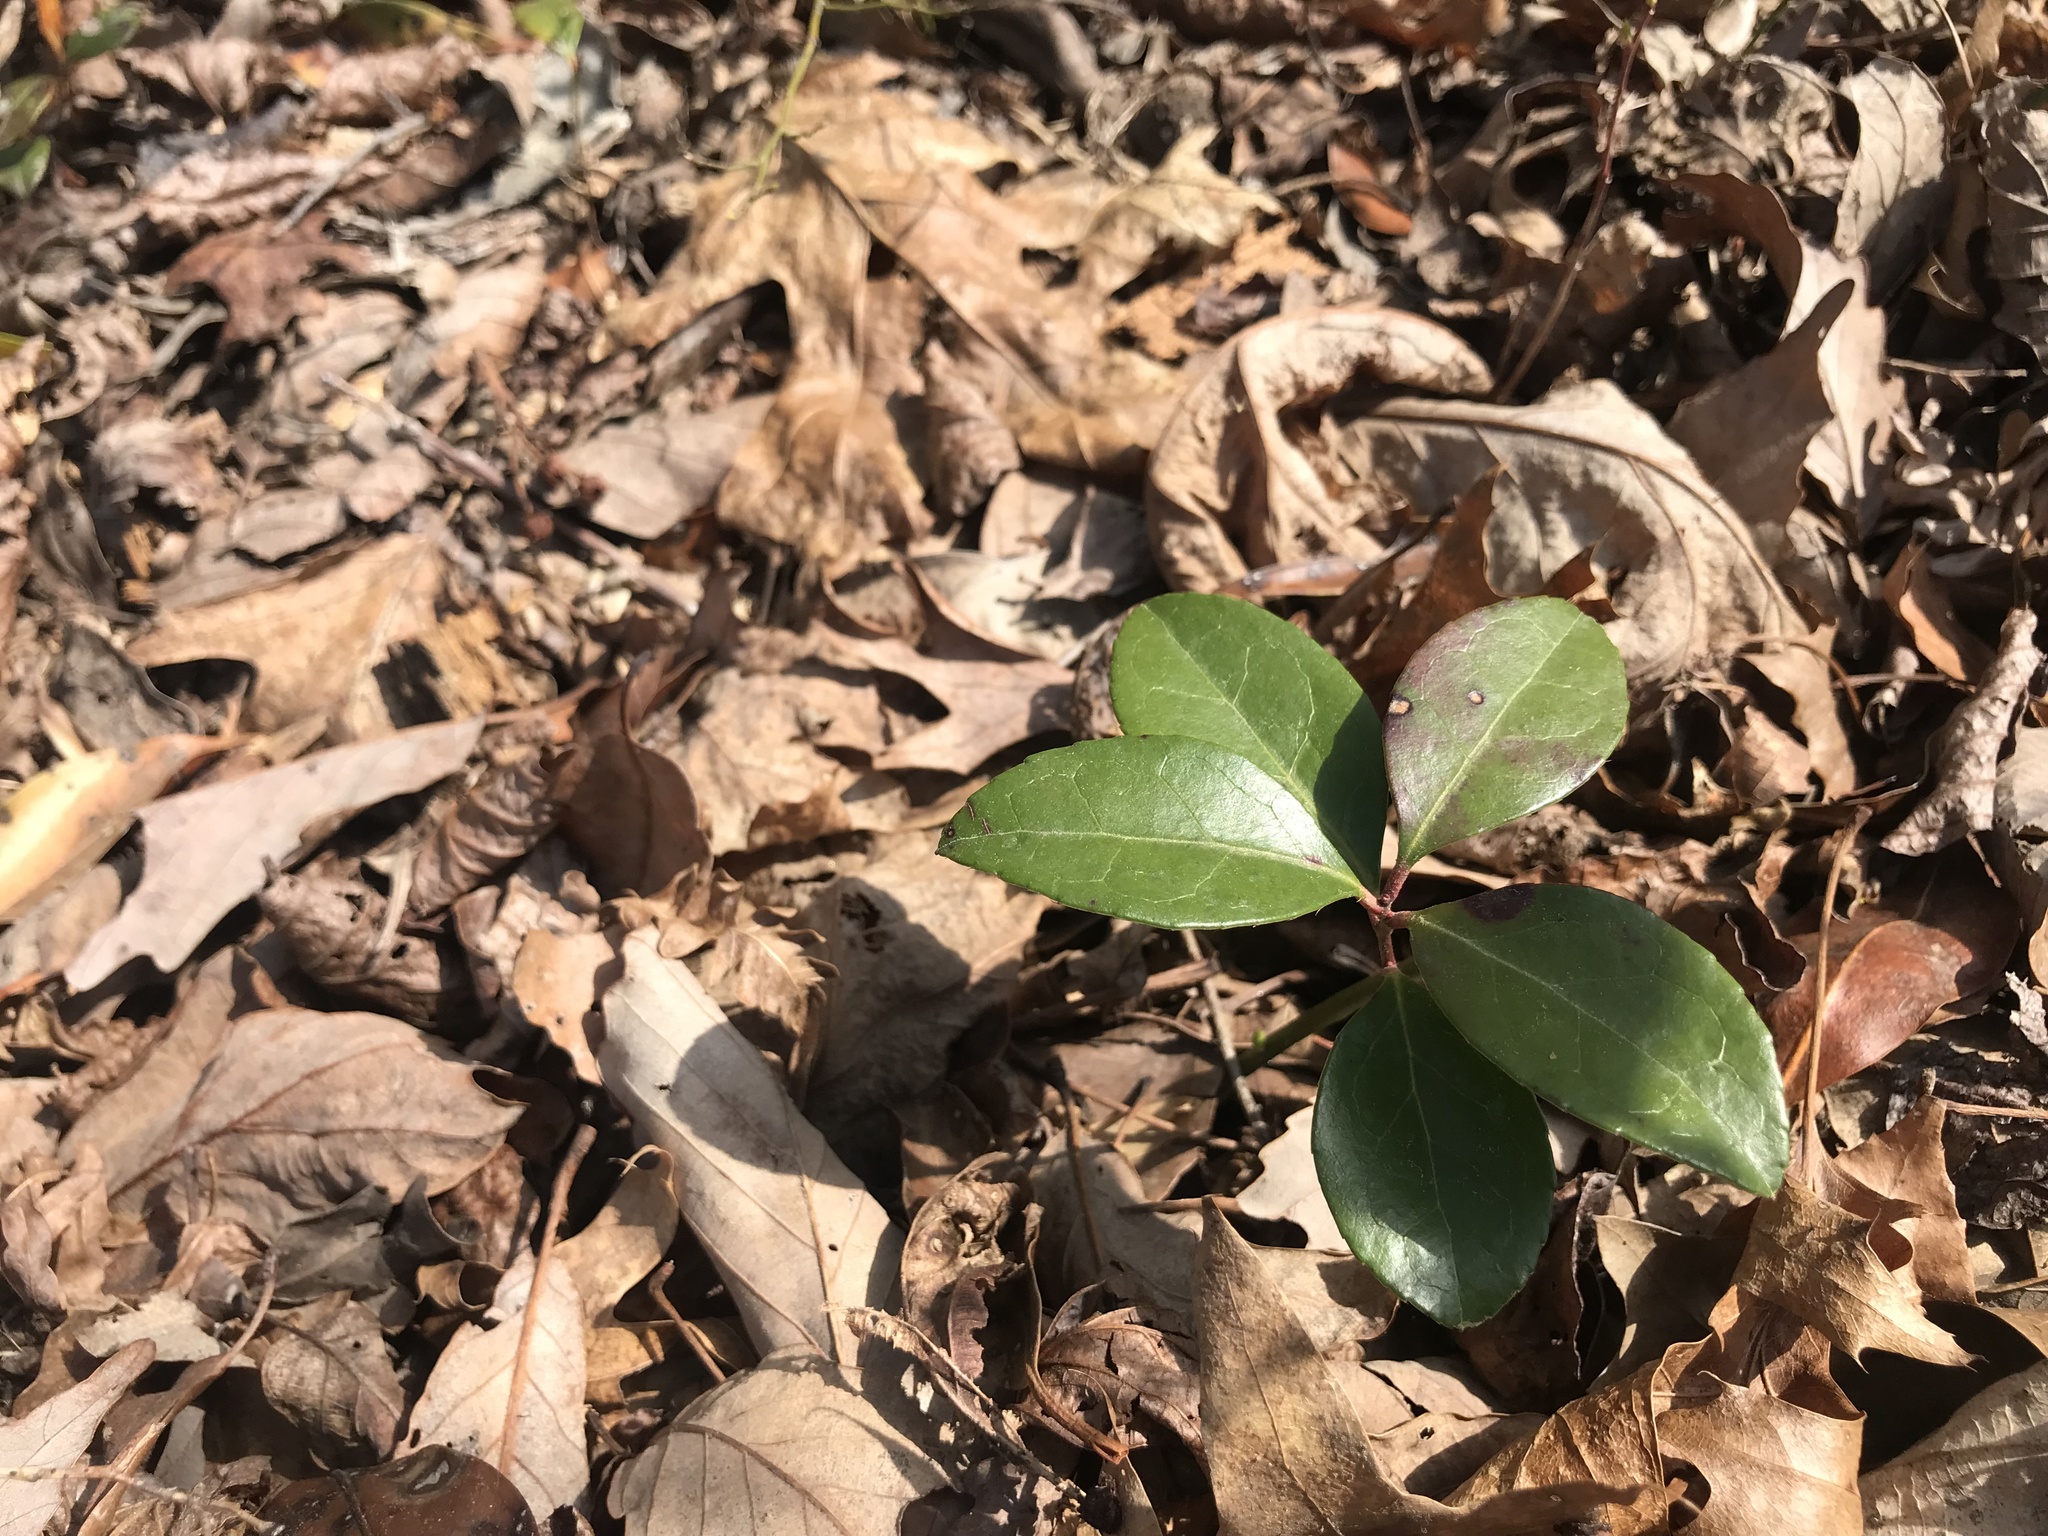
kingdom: Plantae
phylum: Tracheophyta
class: Magnoliopsida
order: Ericales
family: Ericaceae
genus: Gaultheria
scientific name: Gaultheria procumbens
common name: Checkerberry
